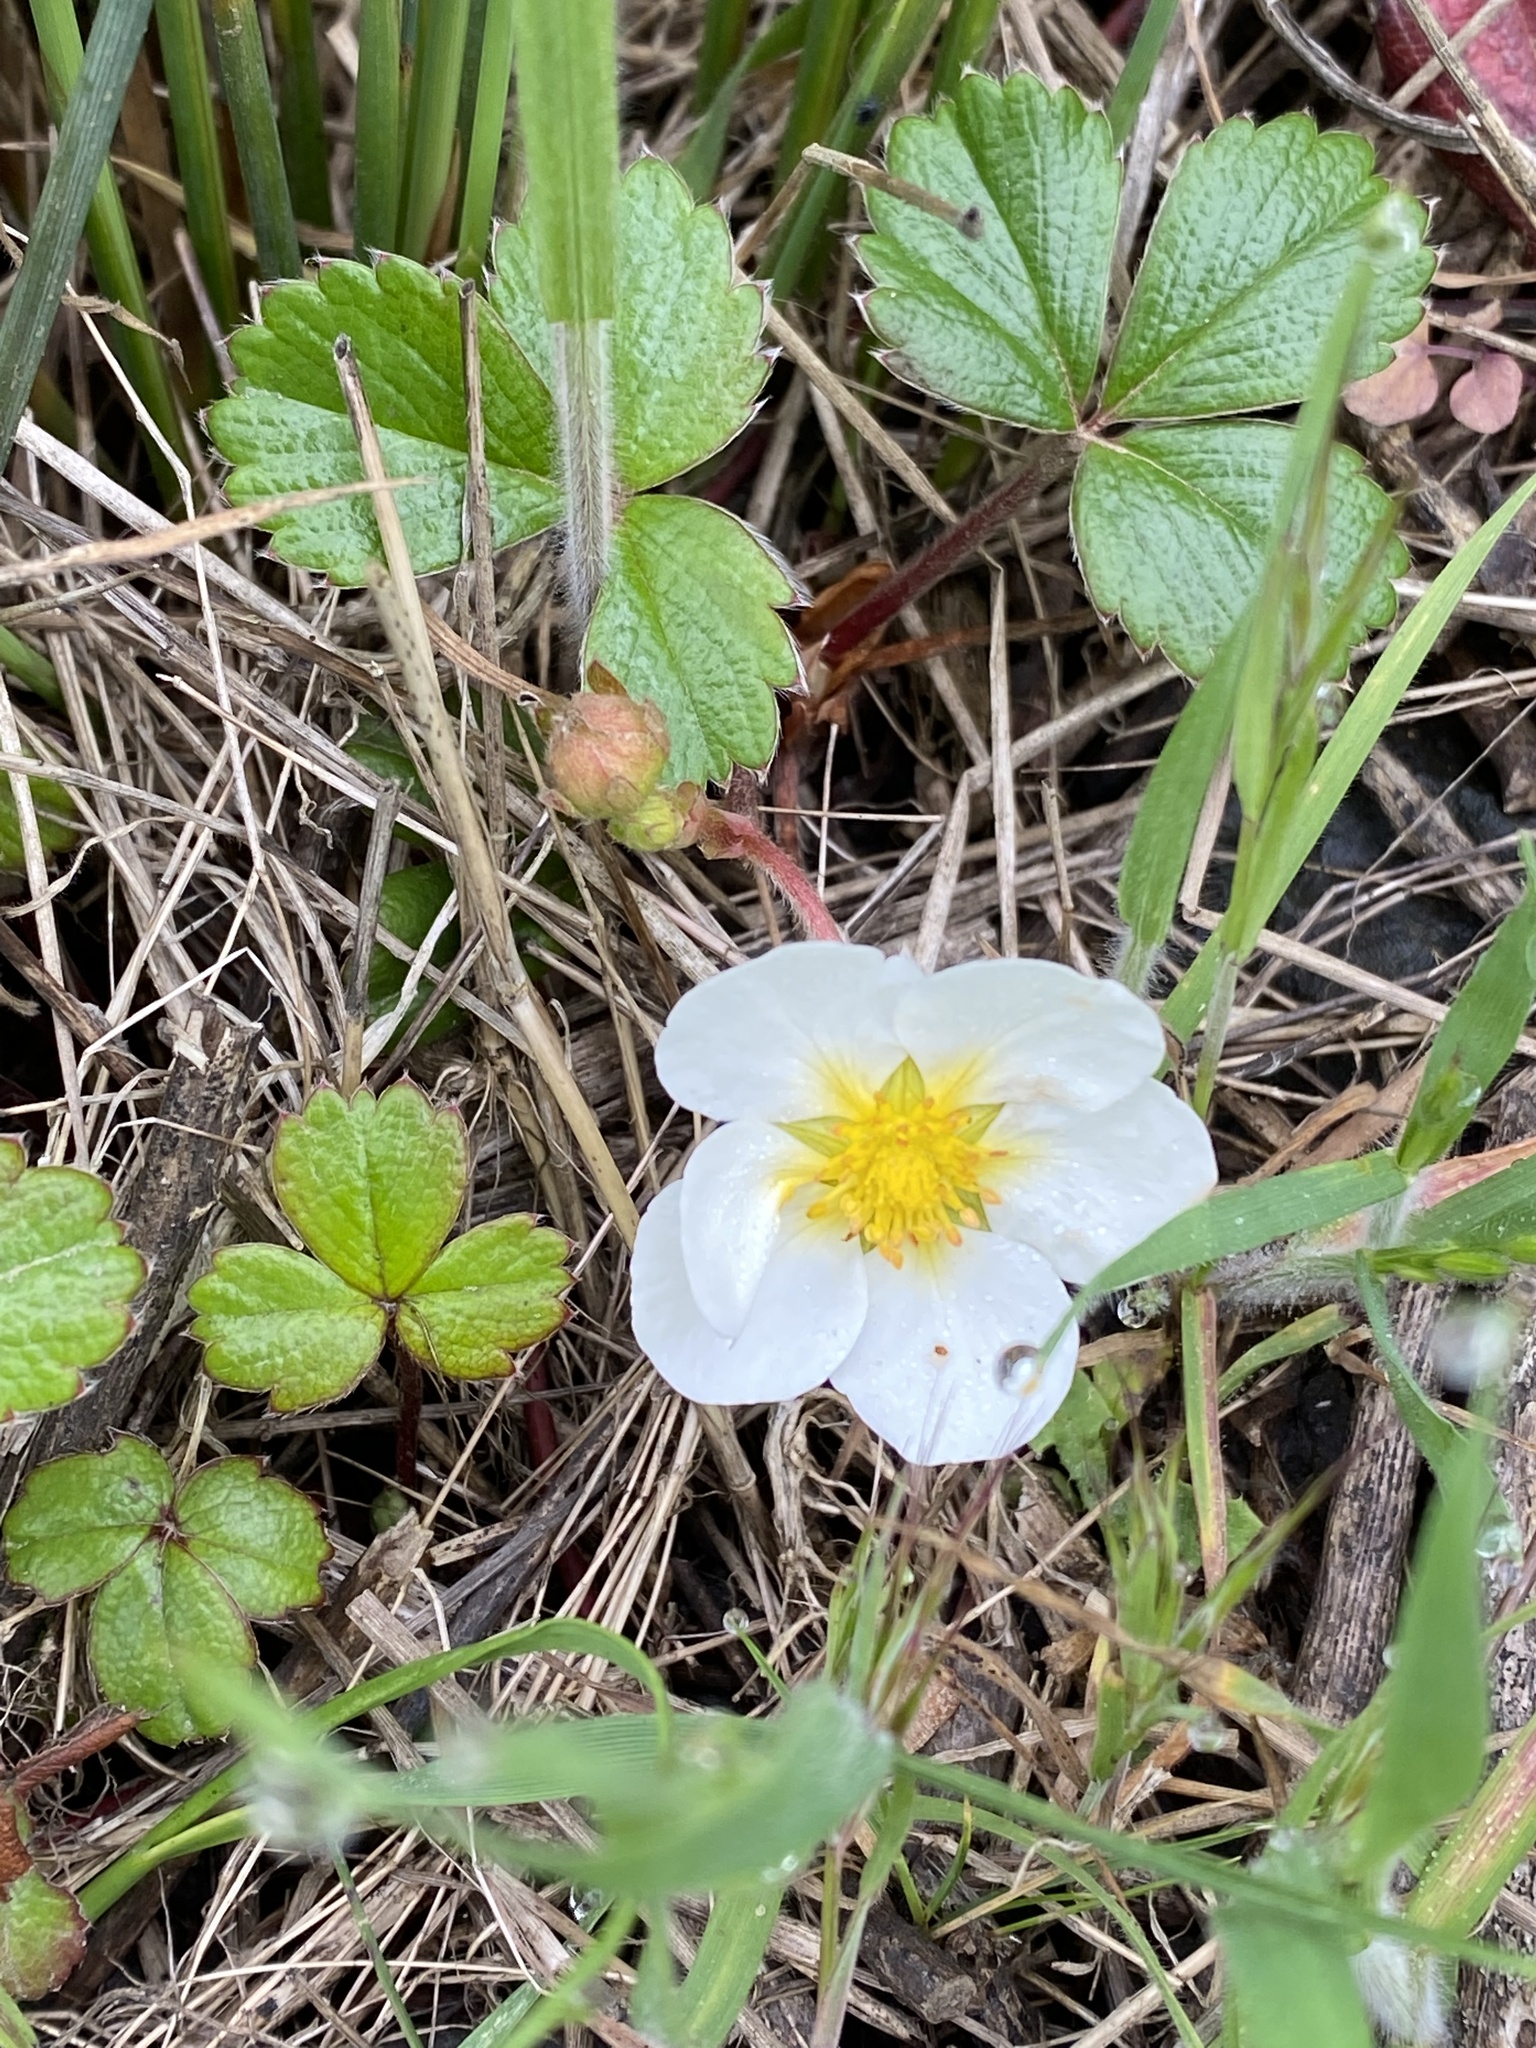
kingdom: Plantae
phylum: Tracheophyta
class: Magnoliopsida
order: Rosales
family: Rosaceae
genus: Fragaria
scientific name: Fragaria chiloensis
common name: Beach strawberry
